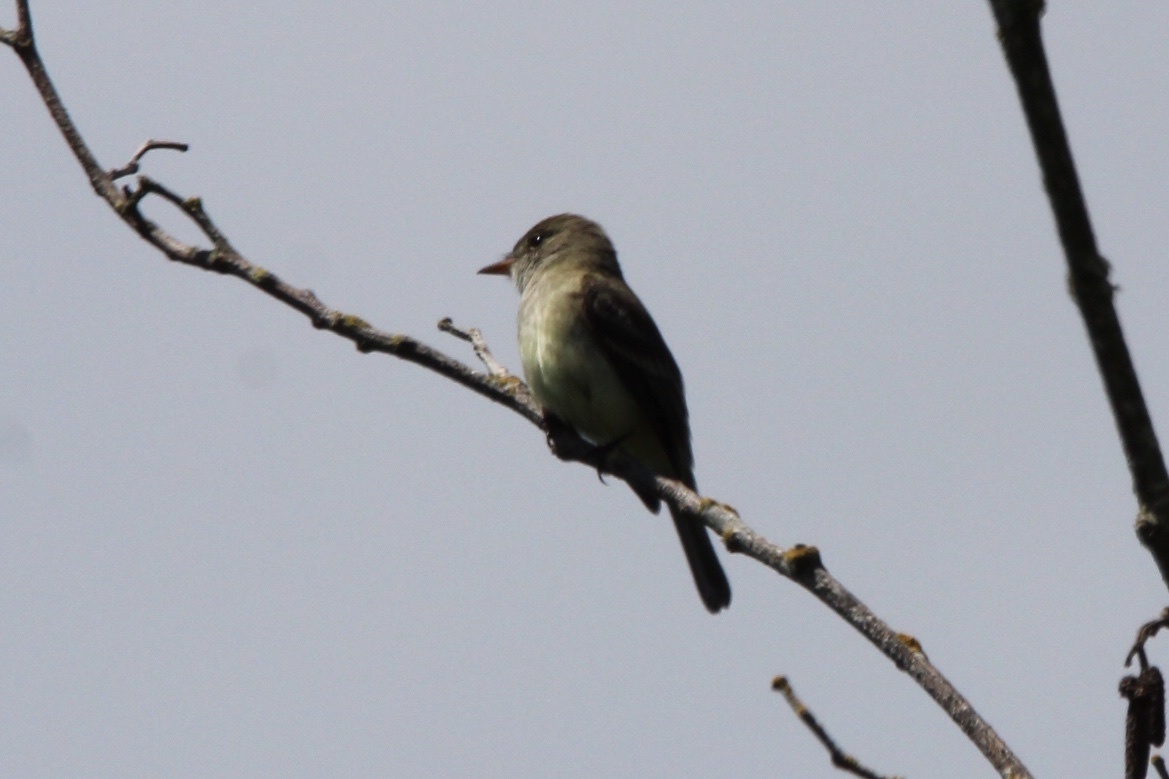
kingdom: Animalia
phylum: Chordata
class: Aves
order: Passeriformes
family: Tyrannidae
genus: Empidonax
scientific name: Empidonax traillii
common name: Willow flycatcher
